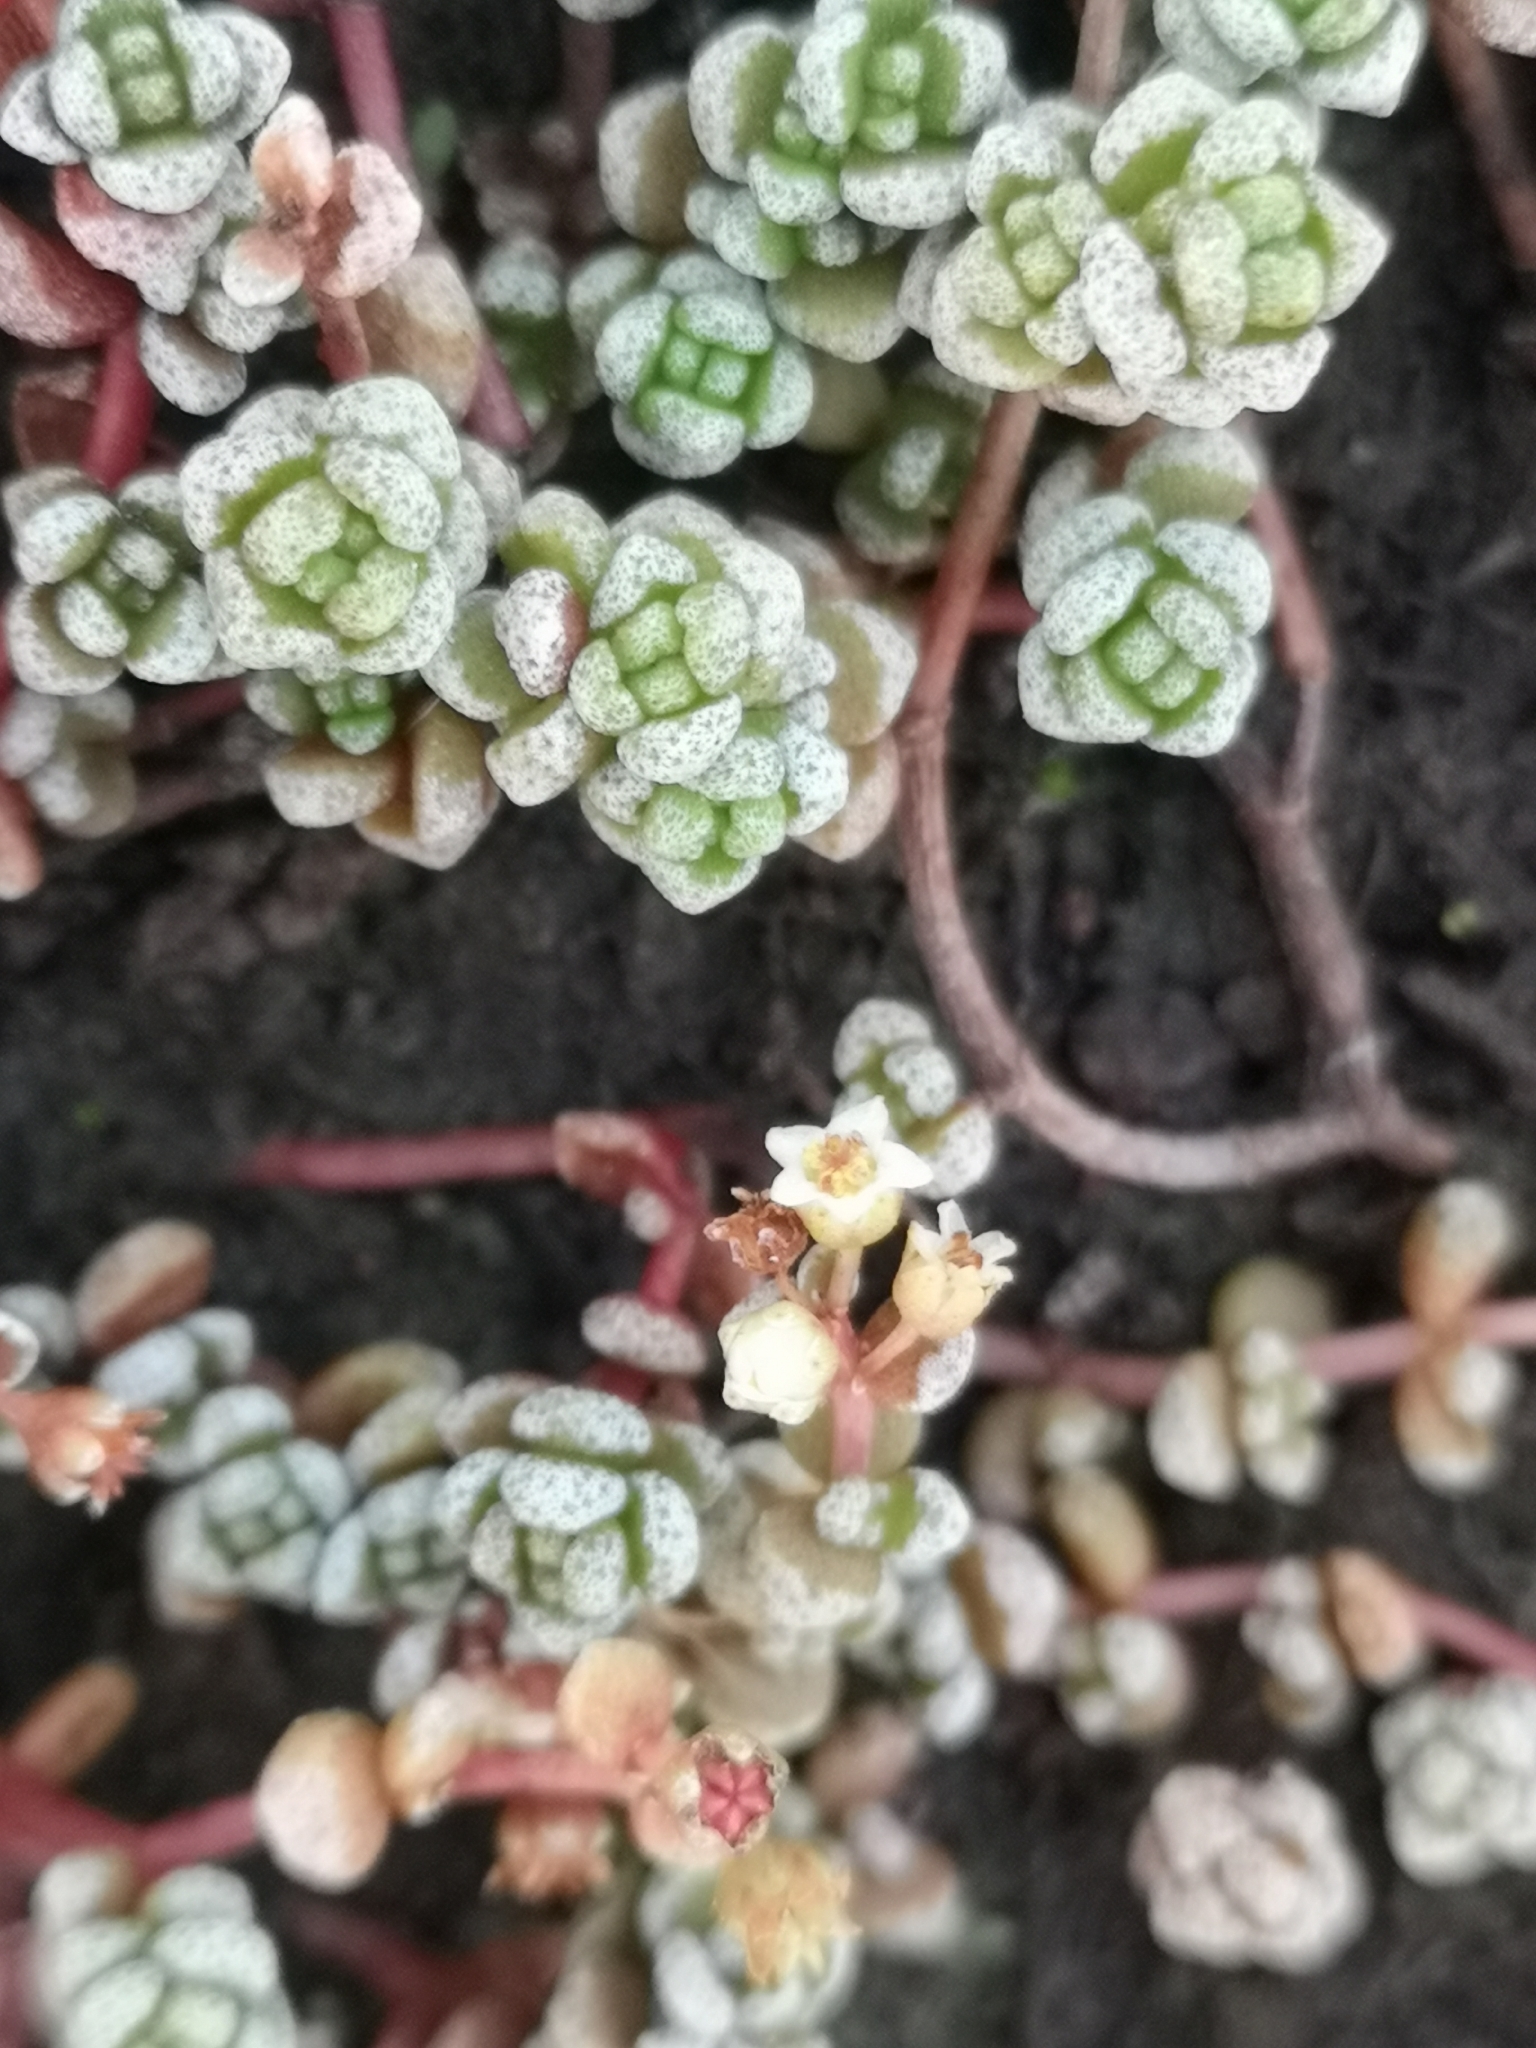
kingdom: Plantae
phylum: Tracheophyta
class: Magnoliopsida
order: Saxifragales
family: Crassulaceae
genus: Crassula
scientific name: Crassula corallina
